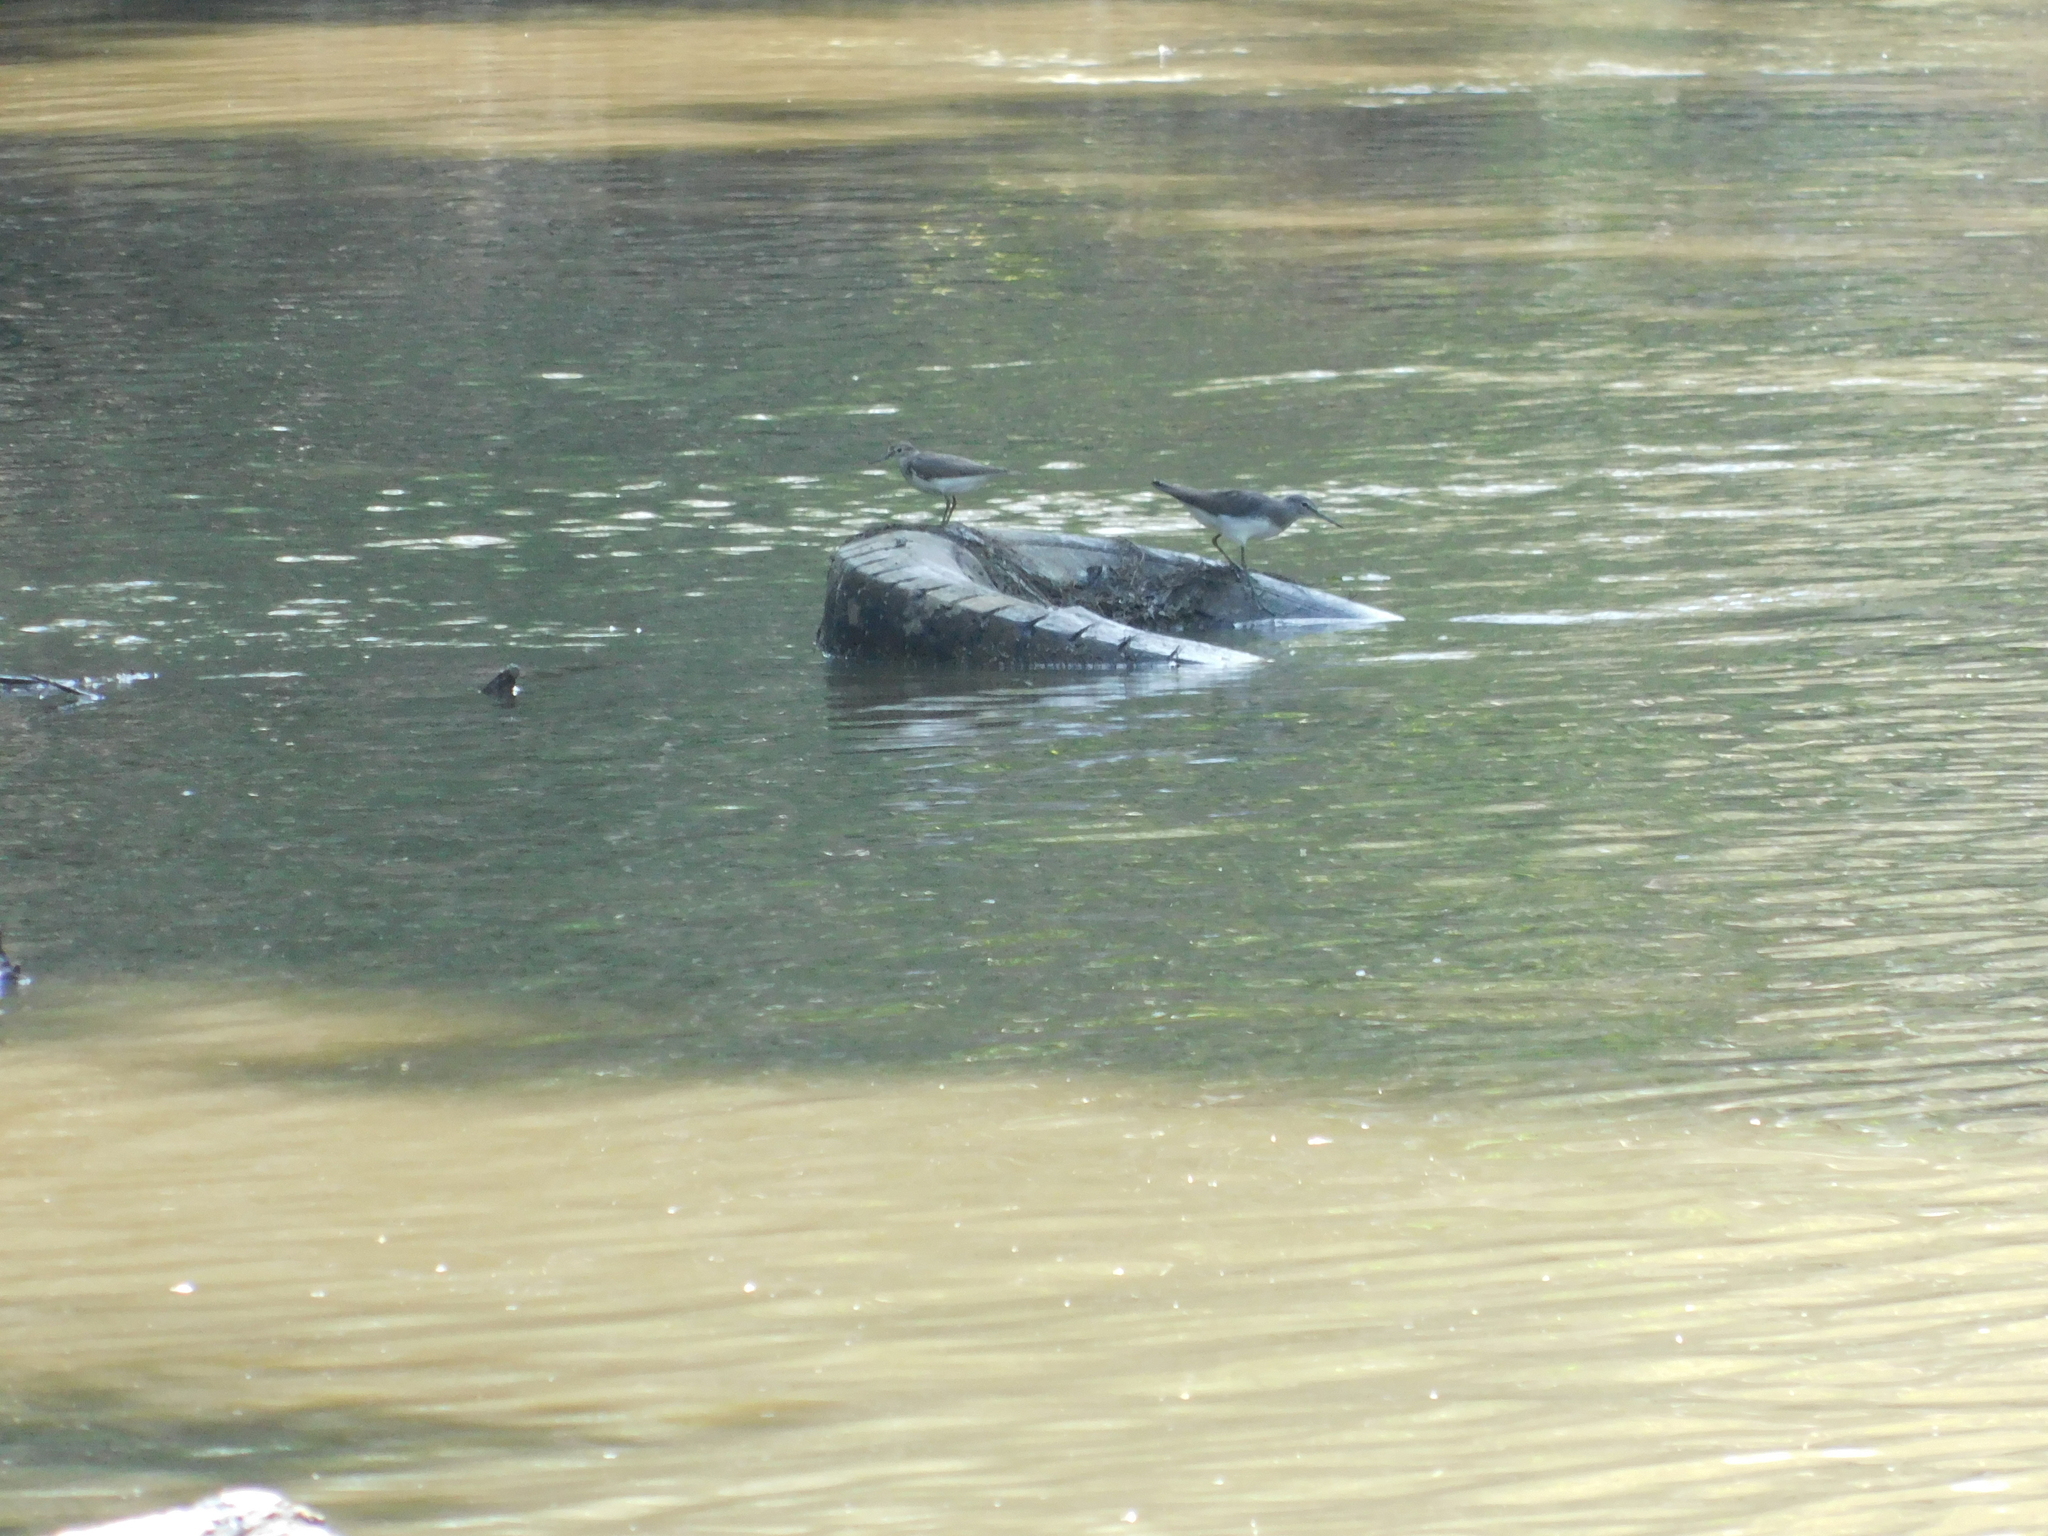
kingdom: Animalia
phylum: Chordata
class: Aves
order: Charadriiformes
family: Scolopacidae
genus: Actitis
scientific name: Actitis hypoleucos
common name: Common sandpiper
